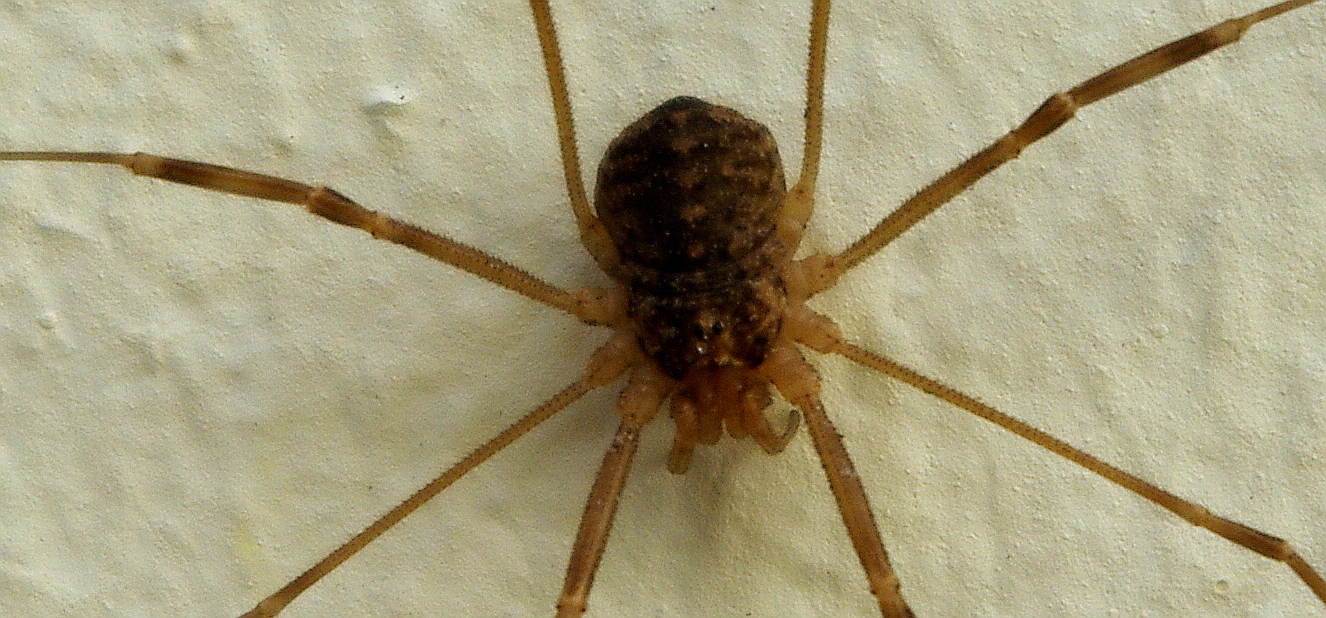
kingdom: Animalia
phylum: Arthropoda
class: Arachnida
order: Opiliones
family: Phalangiidae
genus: Opilio
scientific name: Opilio saxatilis
